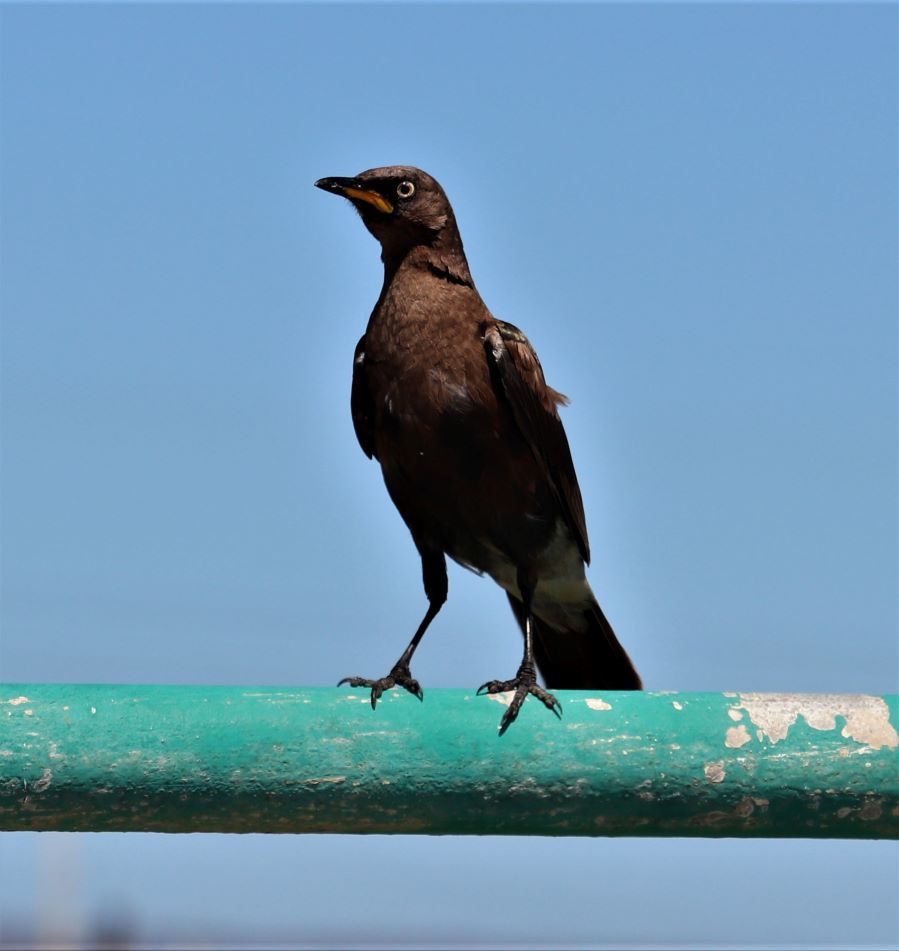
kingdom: Animalia
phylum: Chordata
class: Aves
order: Passeriformes
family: Sturnidae
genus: Lamprotornis
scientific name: Lamprotornis bicolor
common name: Pied starling
